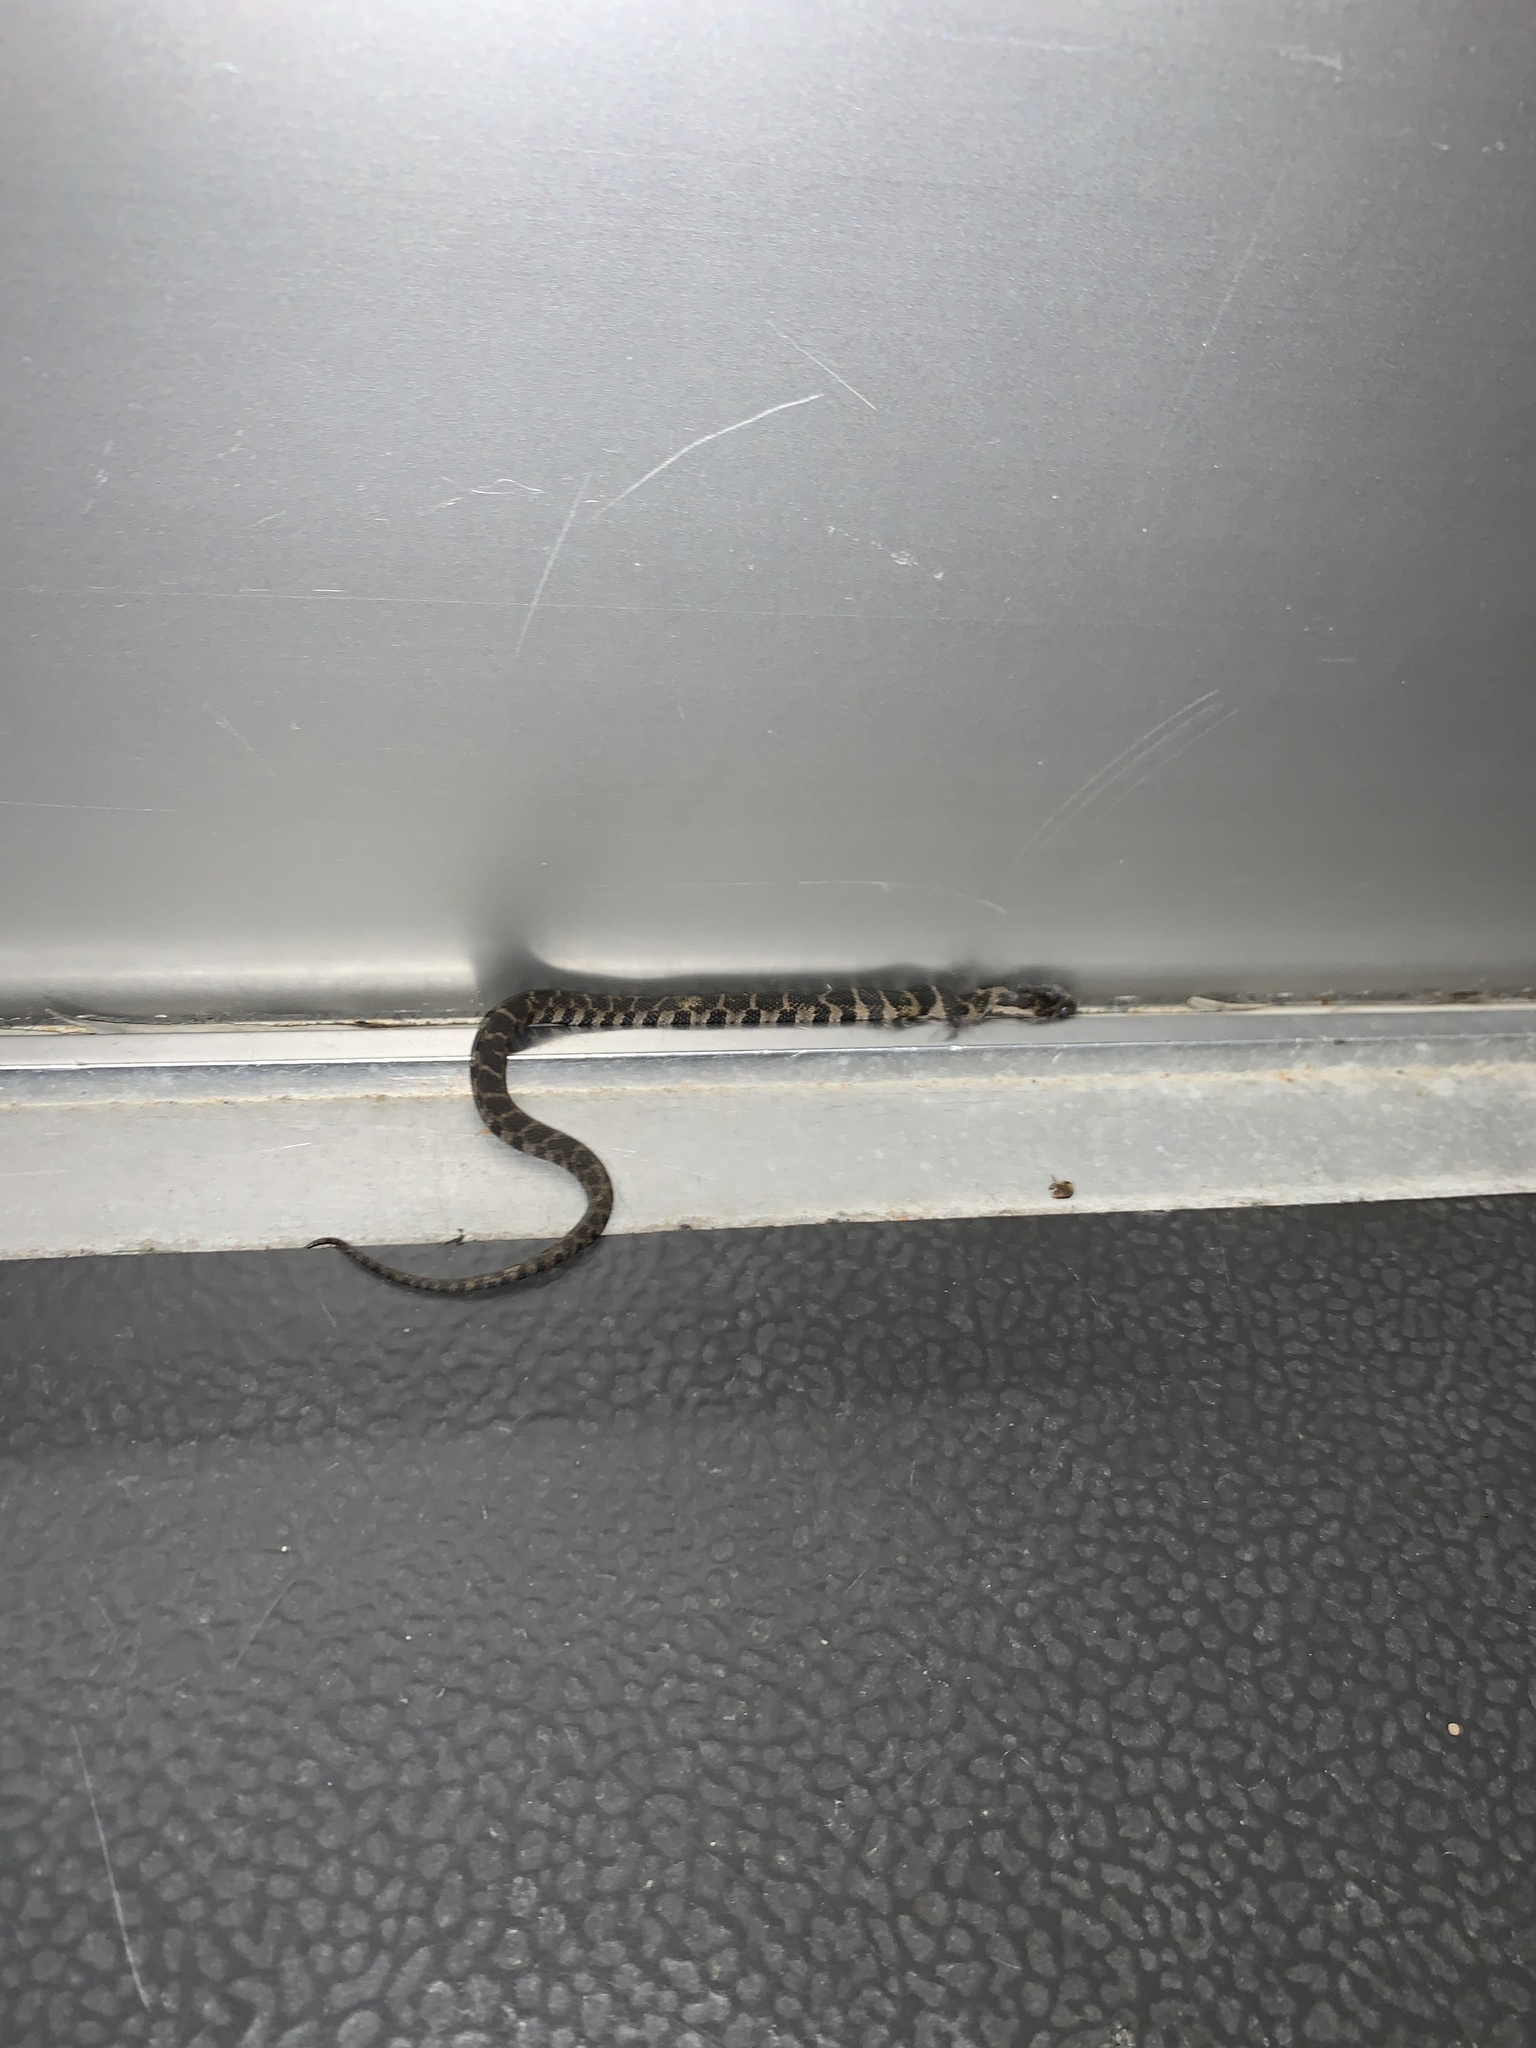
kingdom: Animalia
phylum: Chordata
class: Squamata
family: Colubridae
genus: Nerodia
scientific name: Nerodia sipedon
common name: Northern water snake
